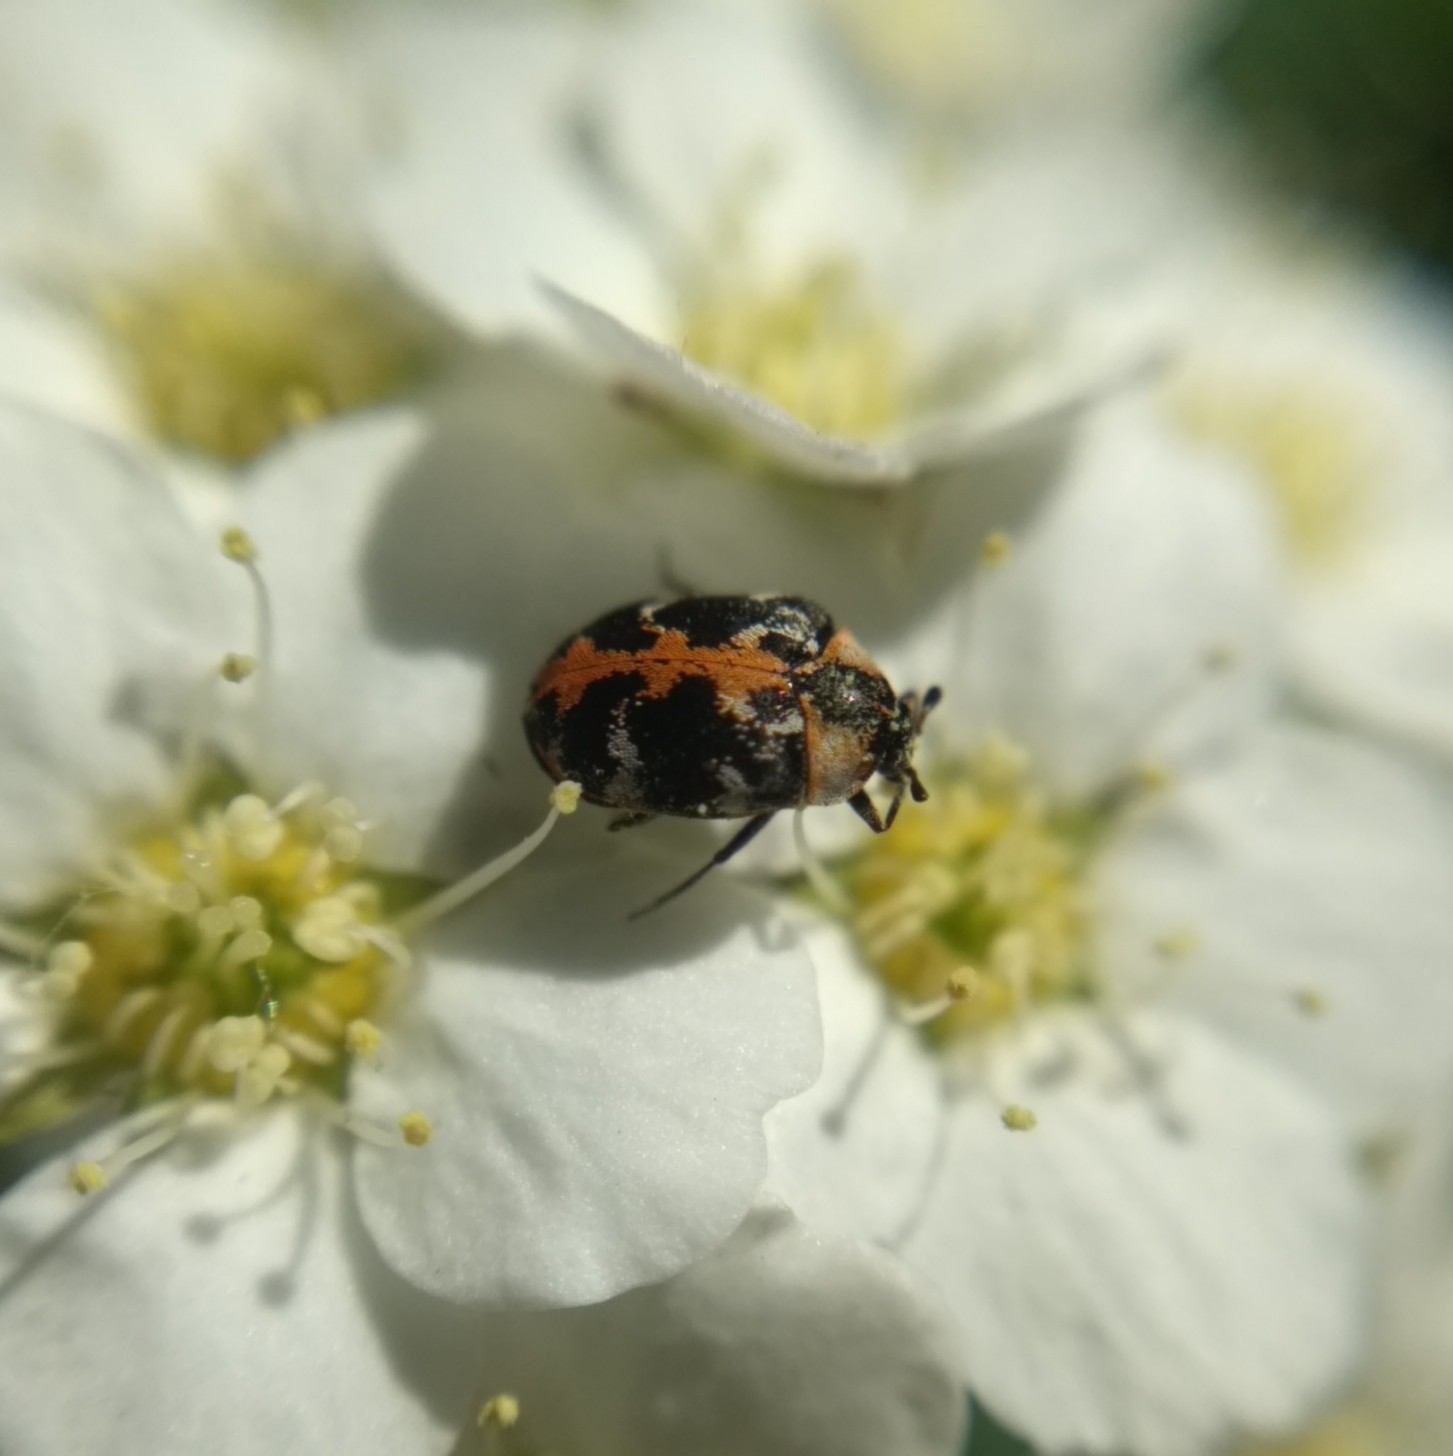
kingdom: Animalia
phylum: Arthropoda
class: Insecta
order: Coleoptera
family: Dermestidae
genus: Anthrenus
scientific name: Anthrenus scrophulariae
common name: Buffalo carpet beetle
